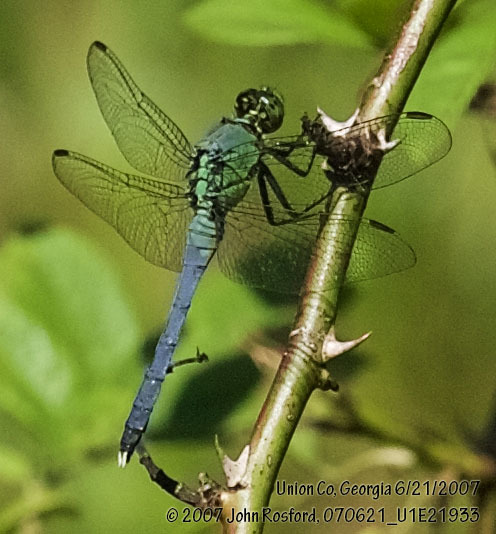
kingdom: Animalia
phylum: Arthropoda
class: Insecta
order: Odonata
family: Libellulidae
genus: Erythemis
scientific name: Erythemis simplicicollis
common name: Eastern pondhawk
